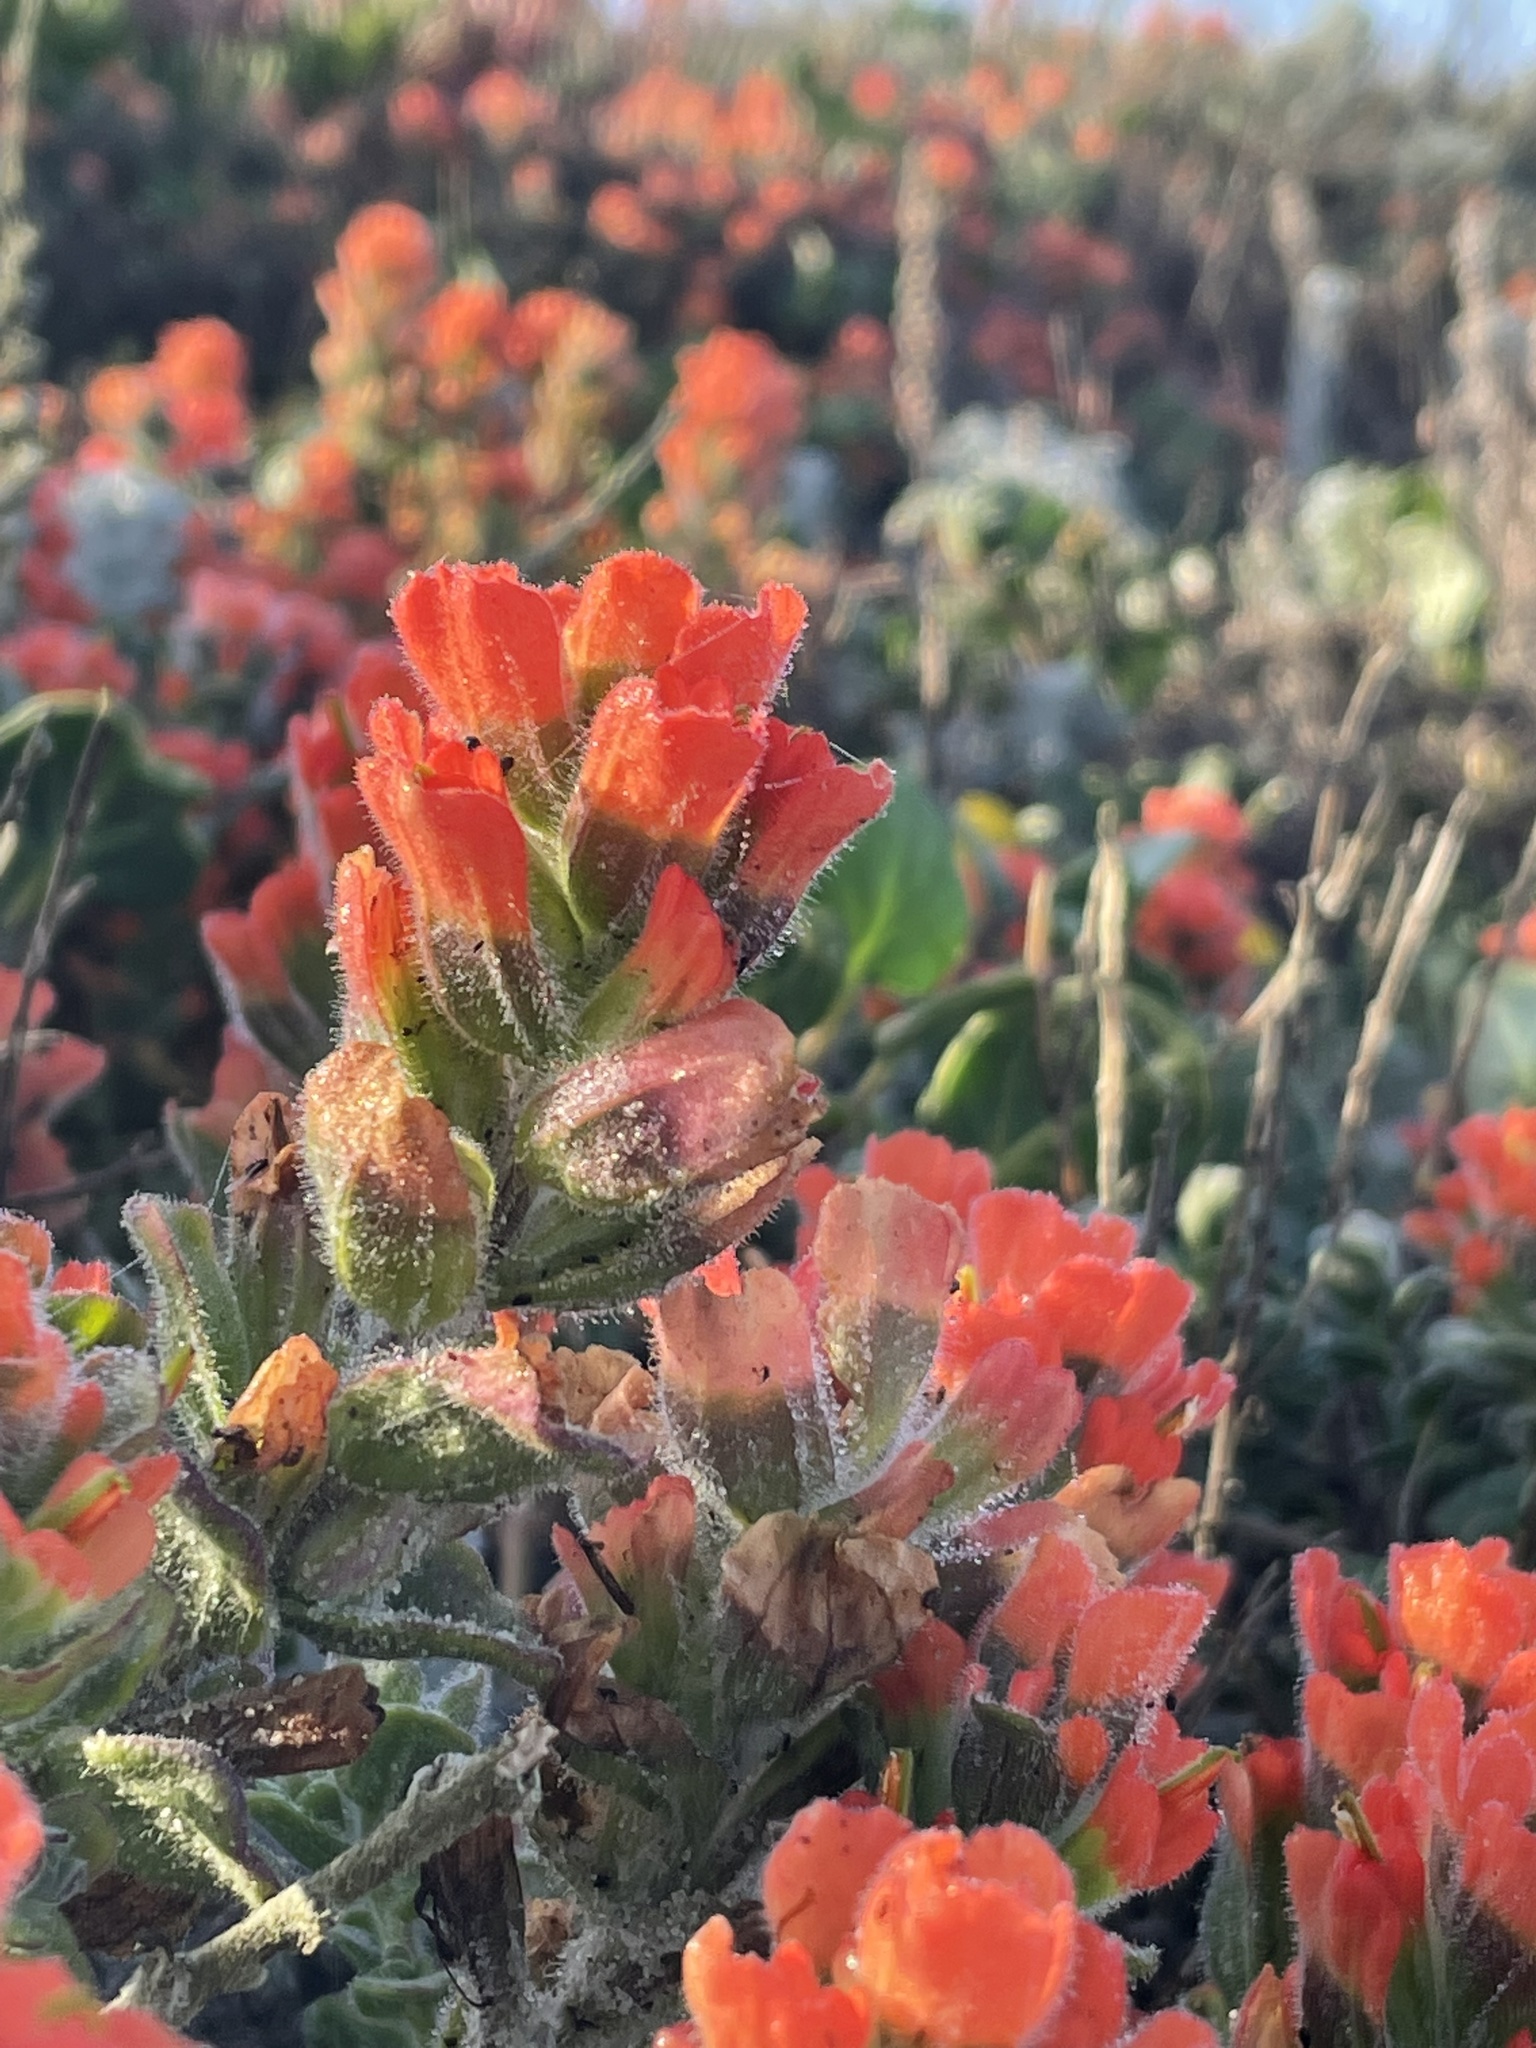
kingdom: Plantae
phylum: Tracheophyta
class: Magnoliopsida
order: Lamiales
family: Orobanchaceae
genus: Castilleja
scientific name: Castilleja latifolia
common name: Monterey indian paintbrush
